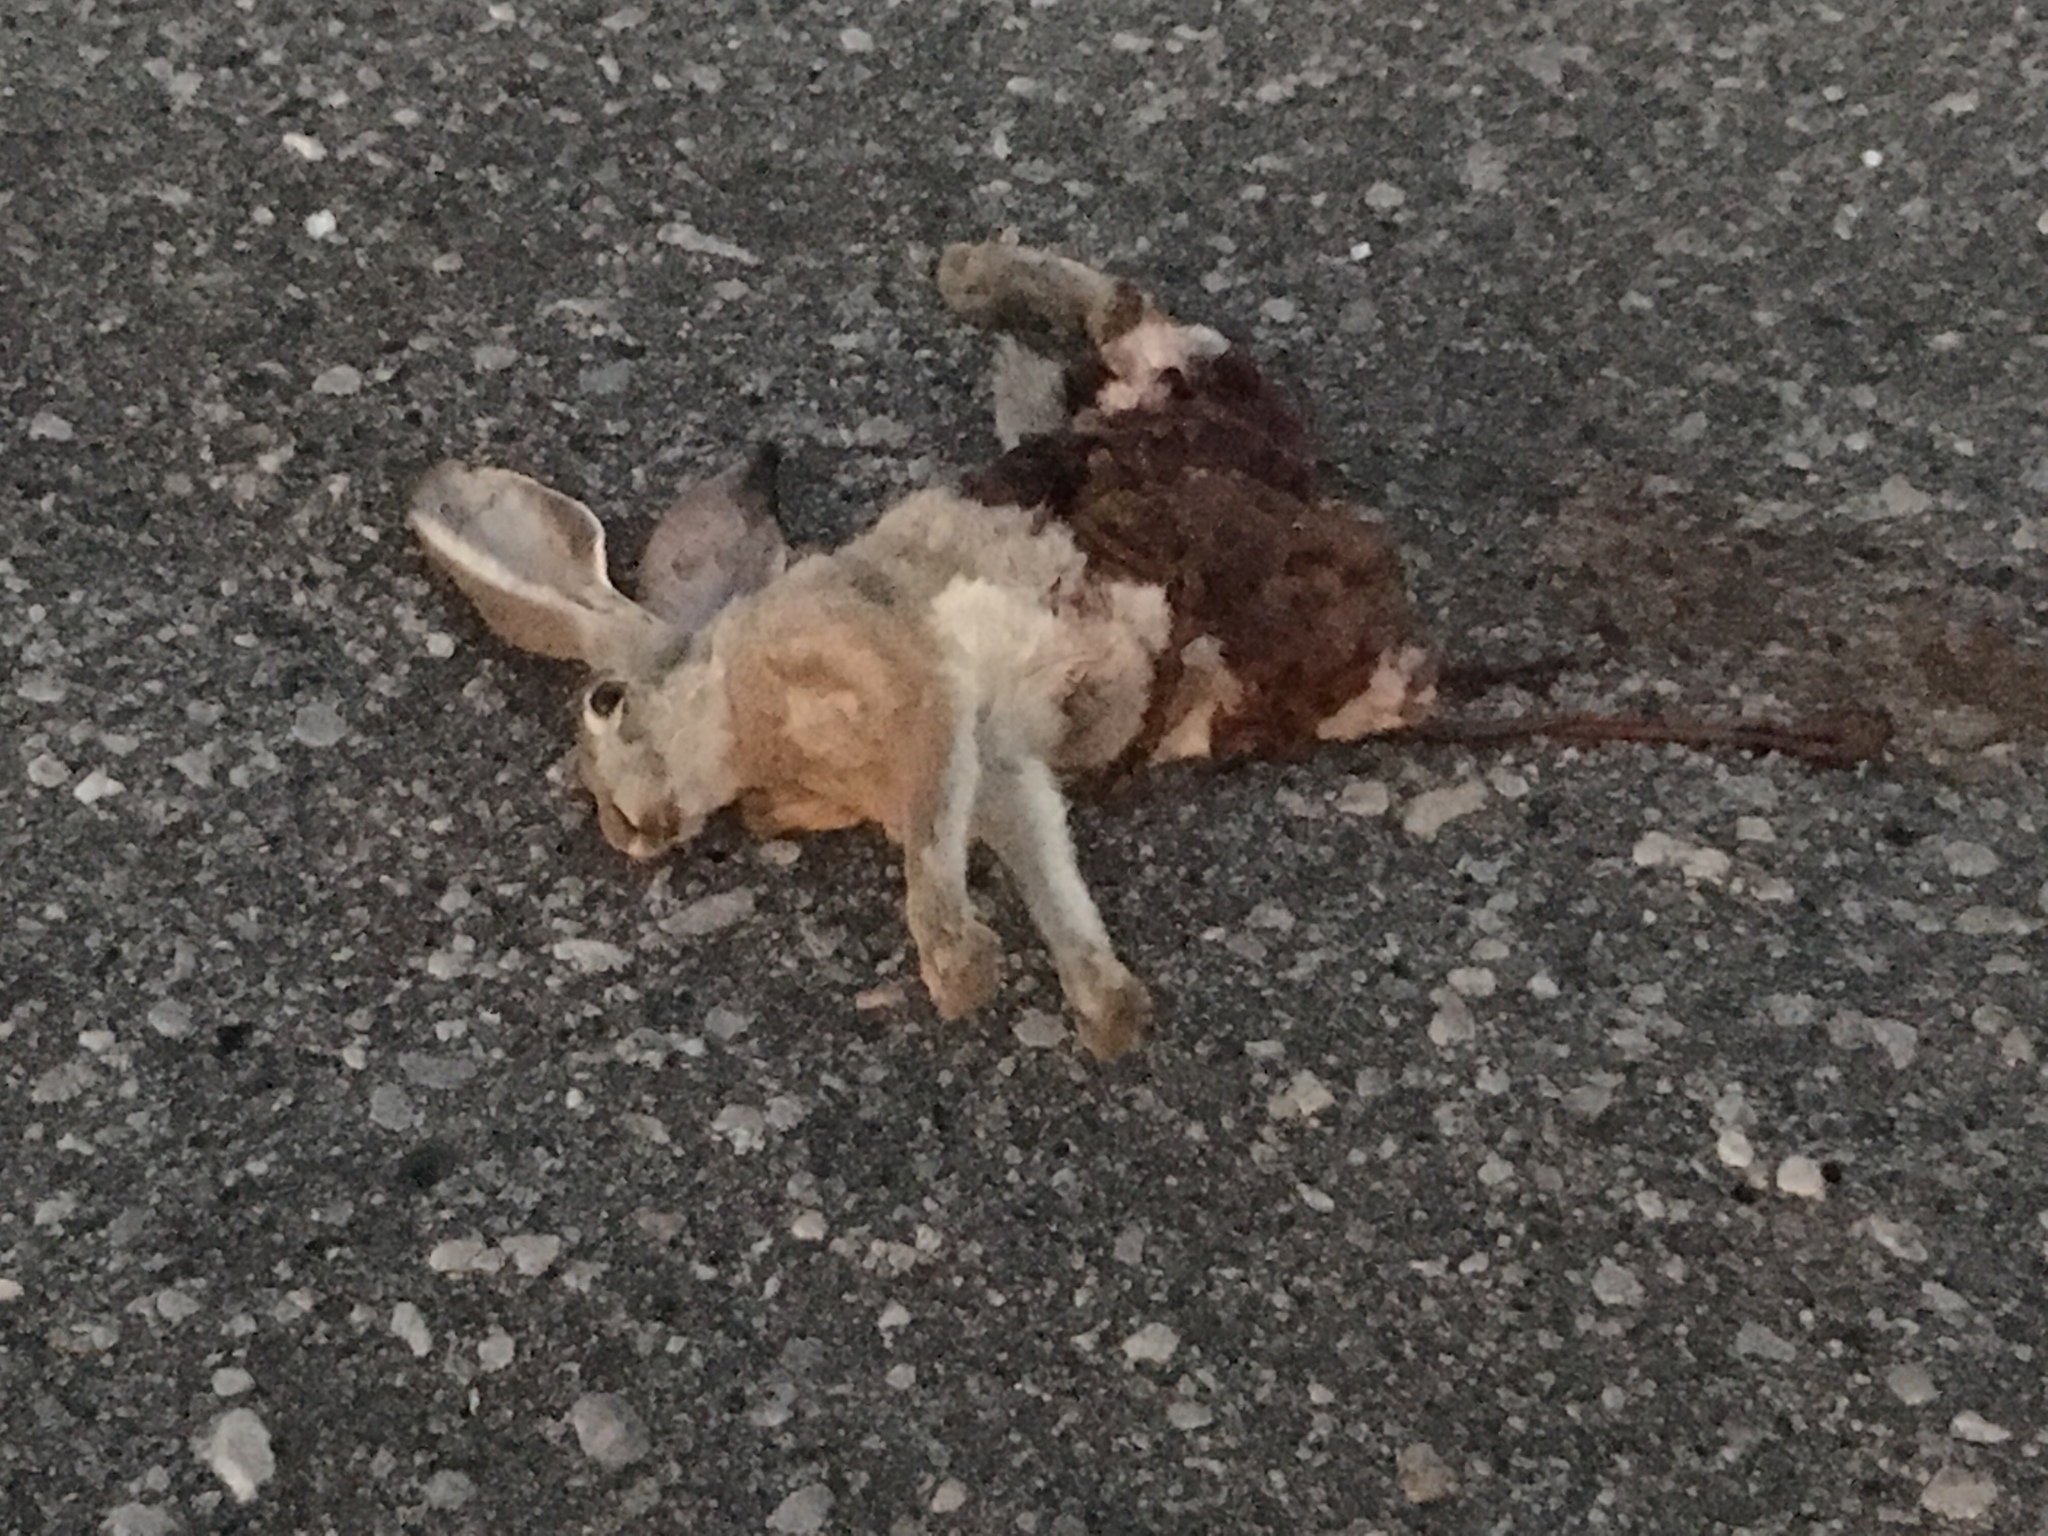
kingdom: Animalia
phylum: Chordata
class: Mammalia
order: Lagomorpha
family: Leporidae
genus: Lepus
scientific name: Lepus californicus
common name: Black-tailed jackrabbit
